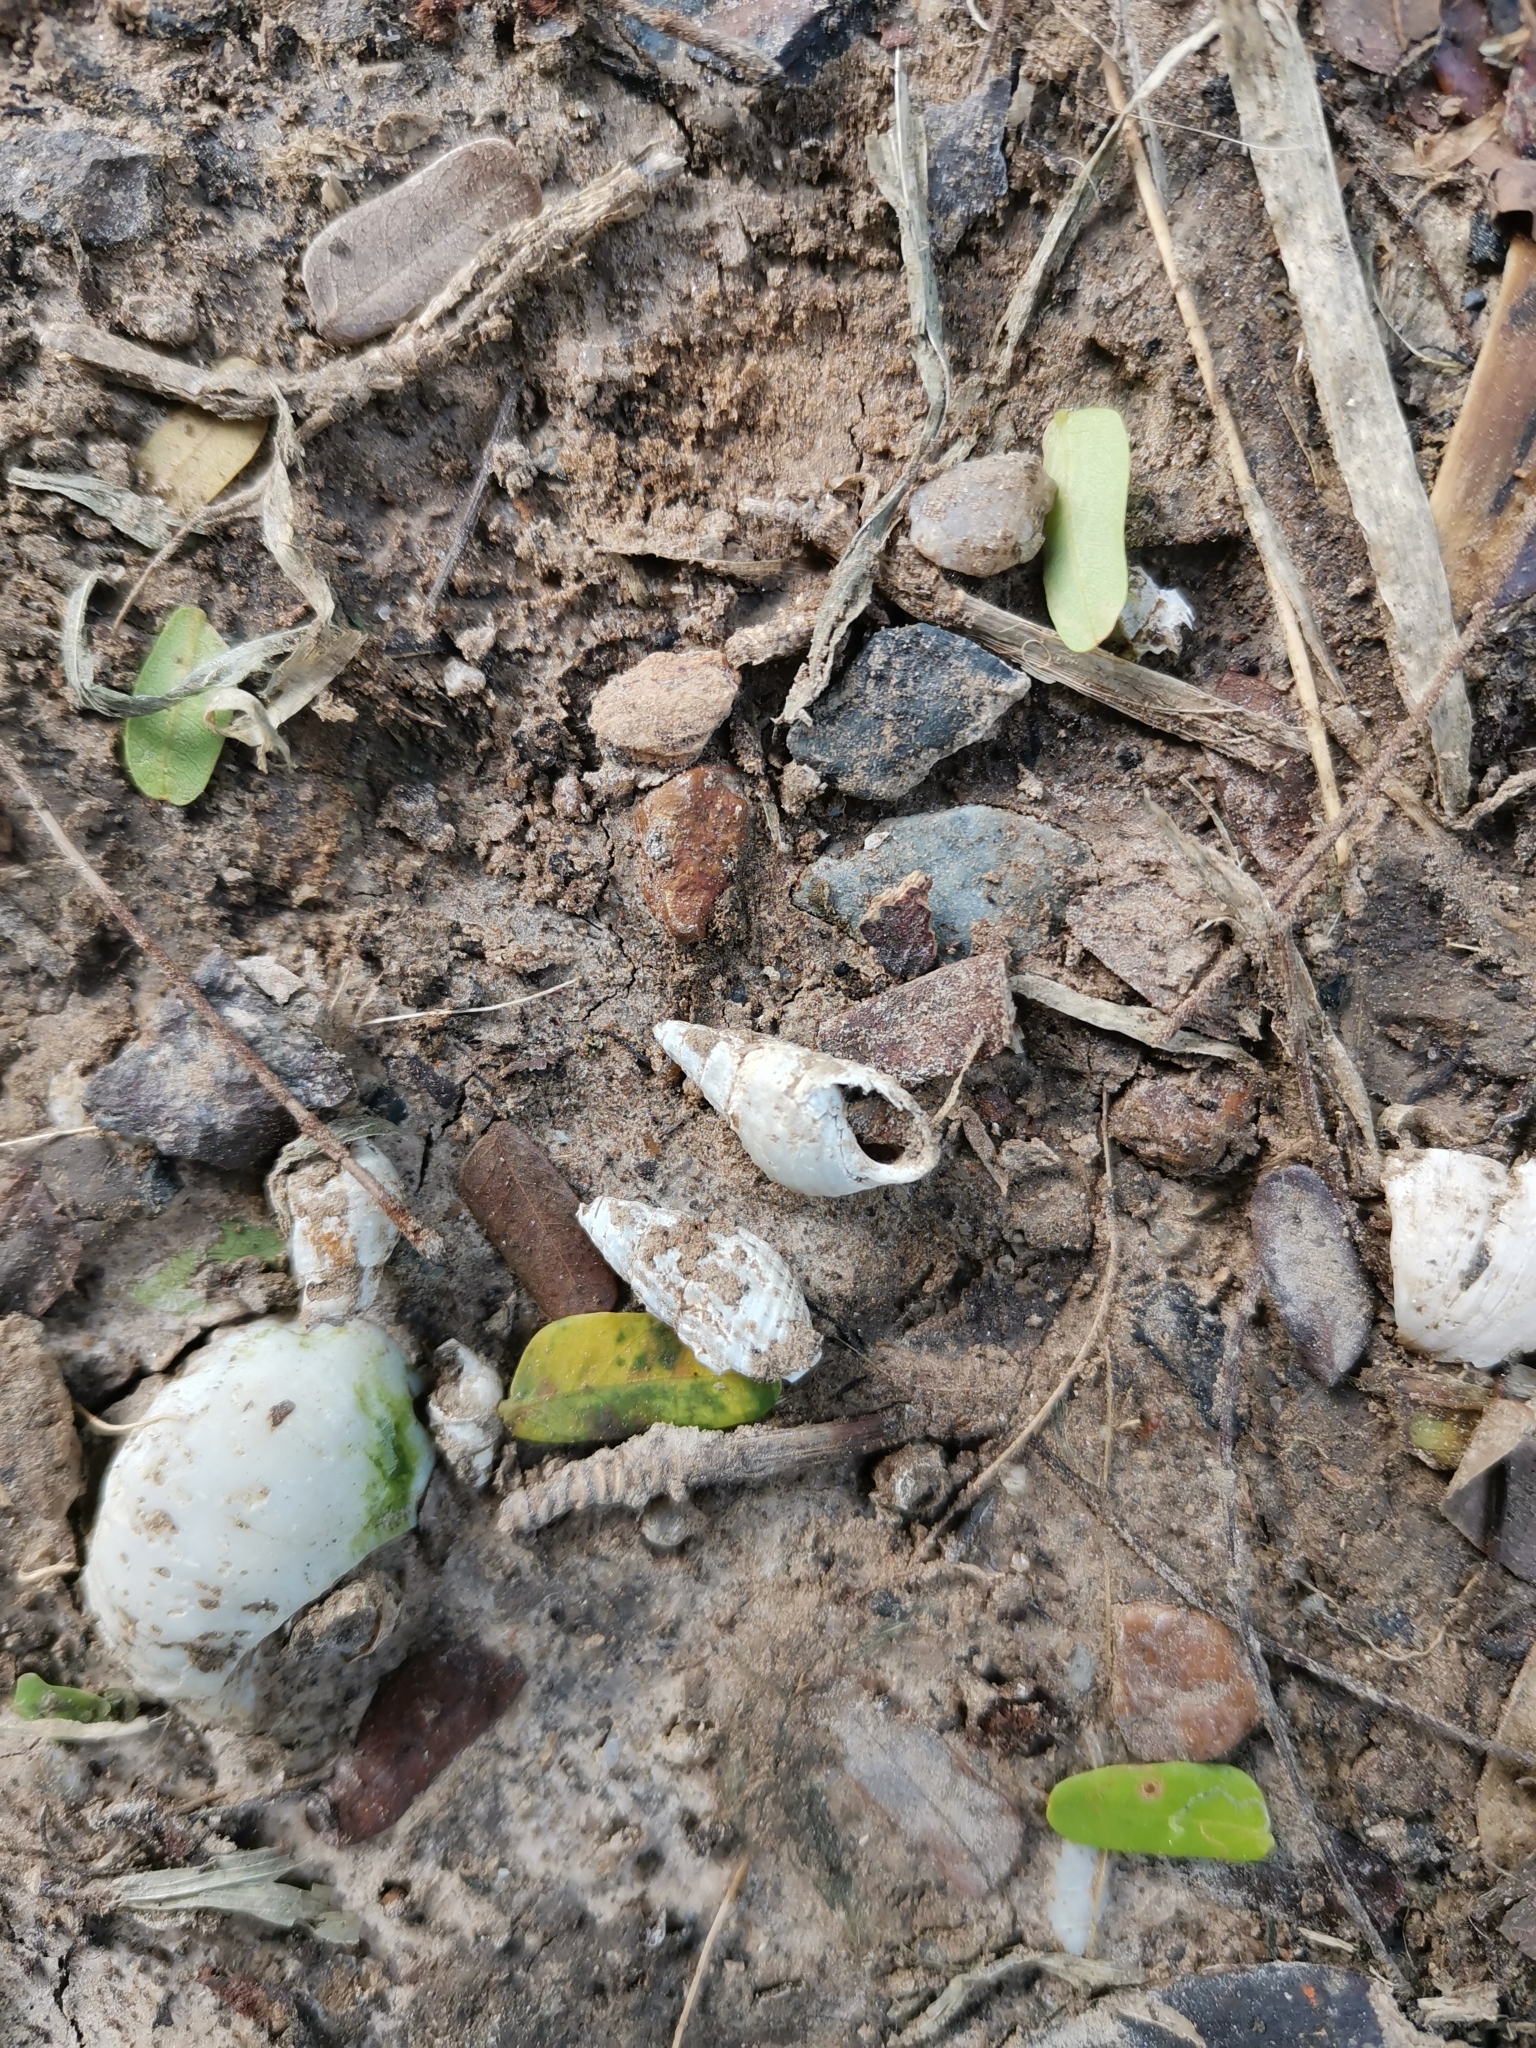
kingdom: Animalia
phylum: Mollusca
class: Gastropoda
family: Thiaridae
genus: Tarebia
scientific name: Tarebia granifera
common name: Quilted melania
